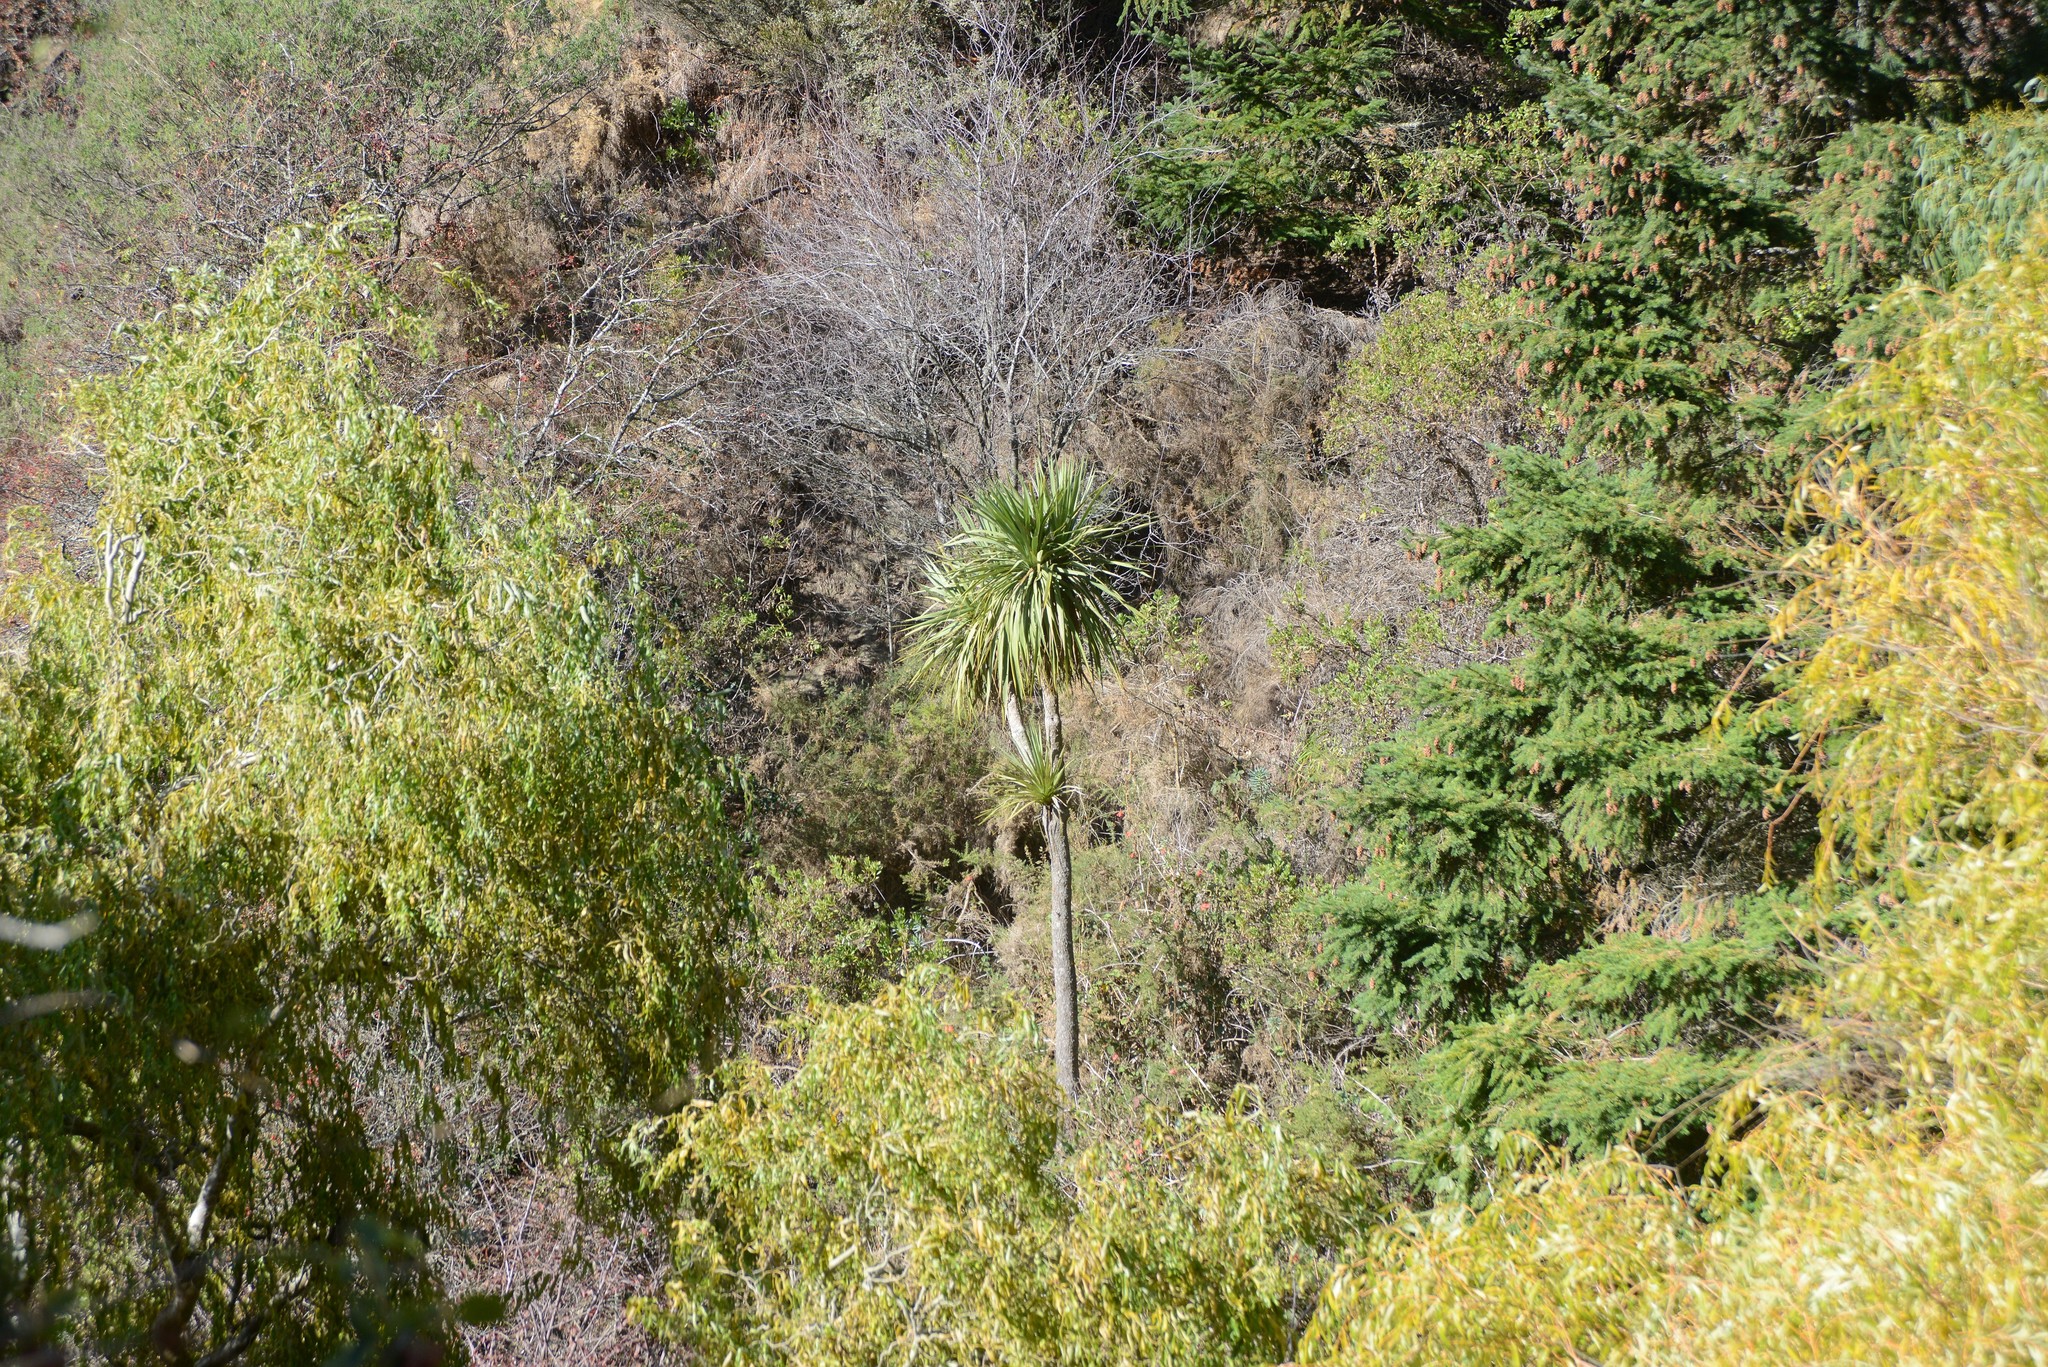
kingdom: Plantae
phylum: Tracheophyta
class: Liliopsida
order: Asparagales
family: Asparagaceae
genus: Cordyline
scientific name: Cordyline australis
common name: Cabbage-palm
